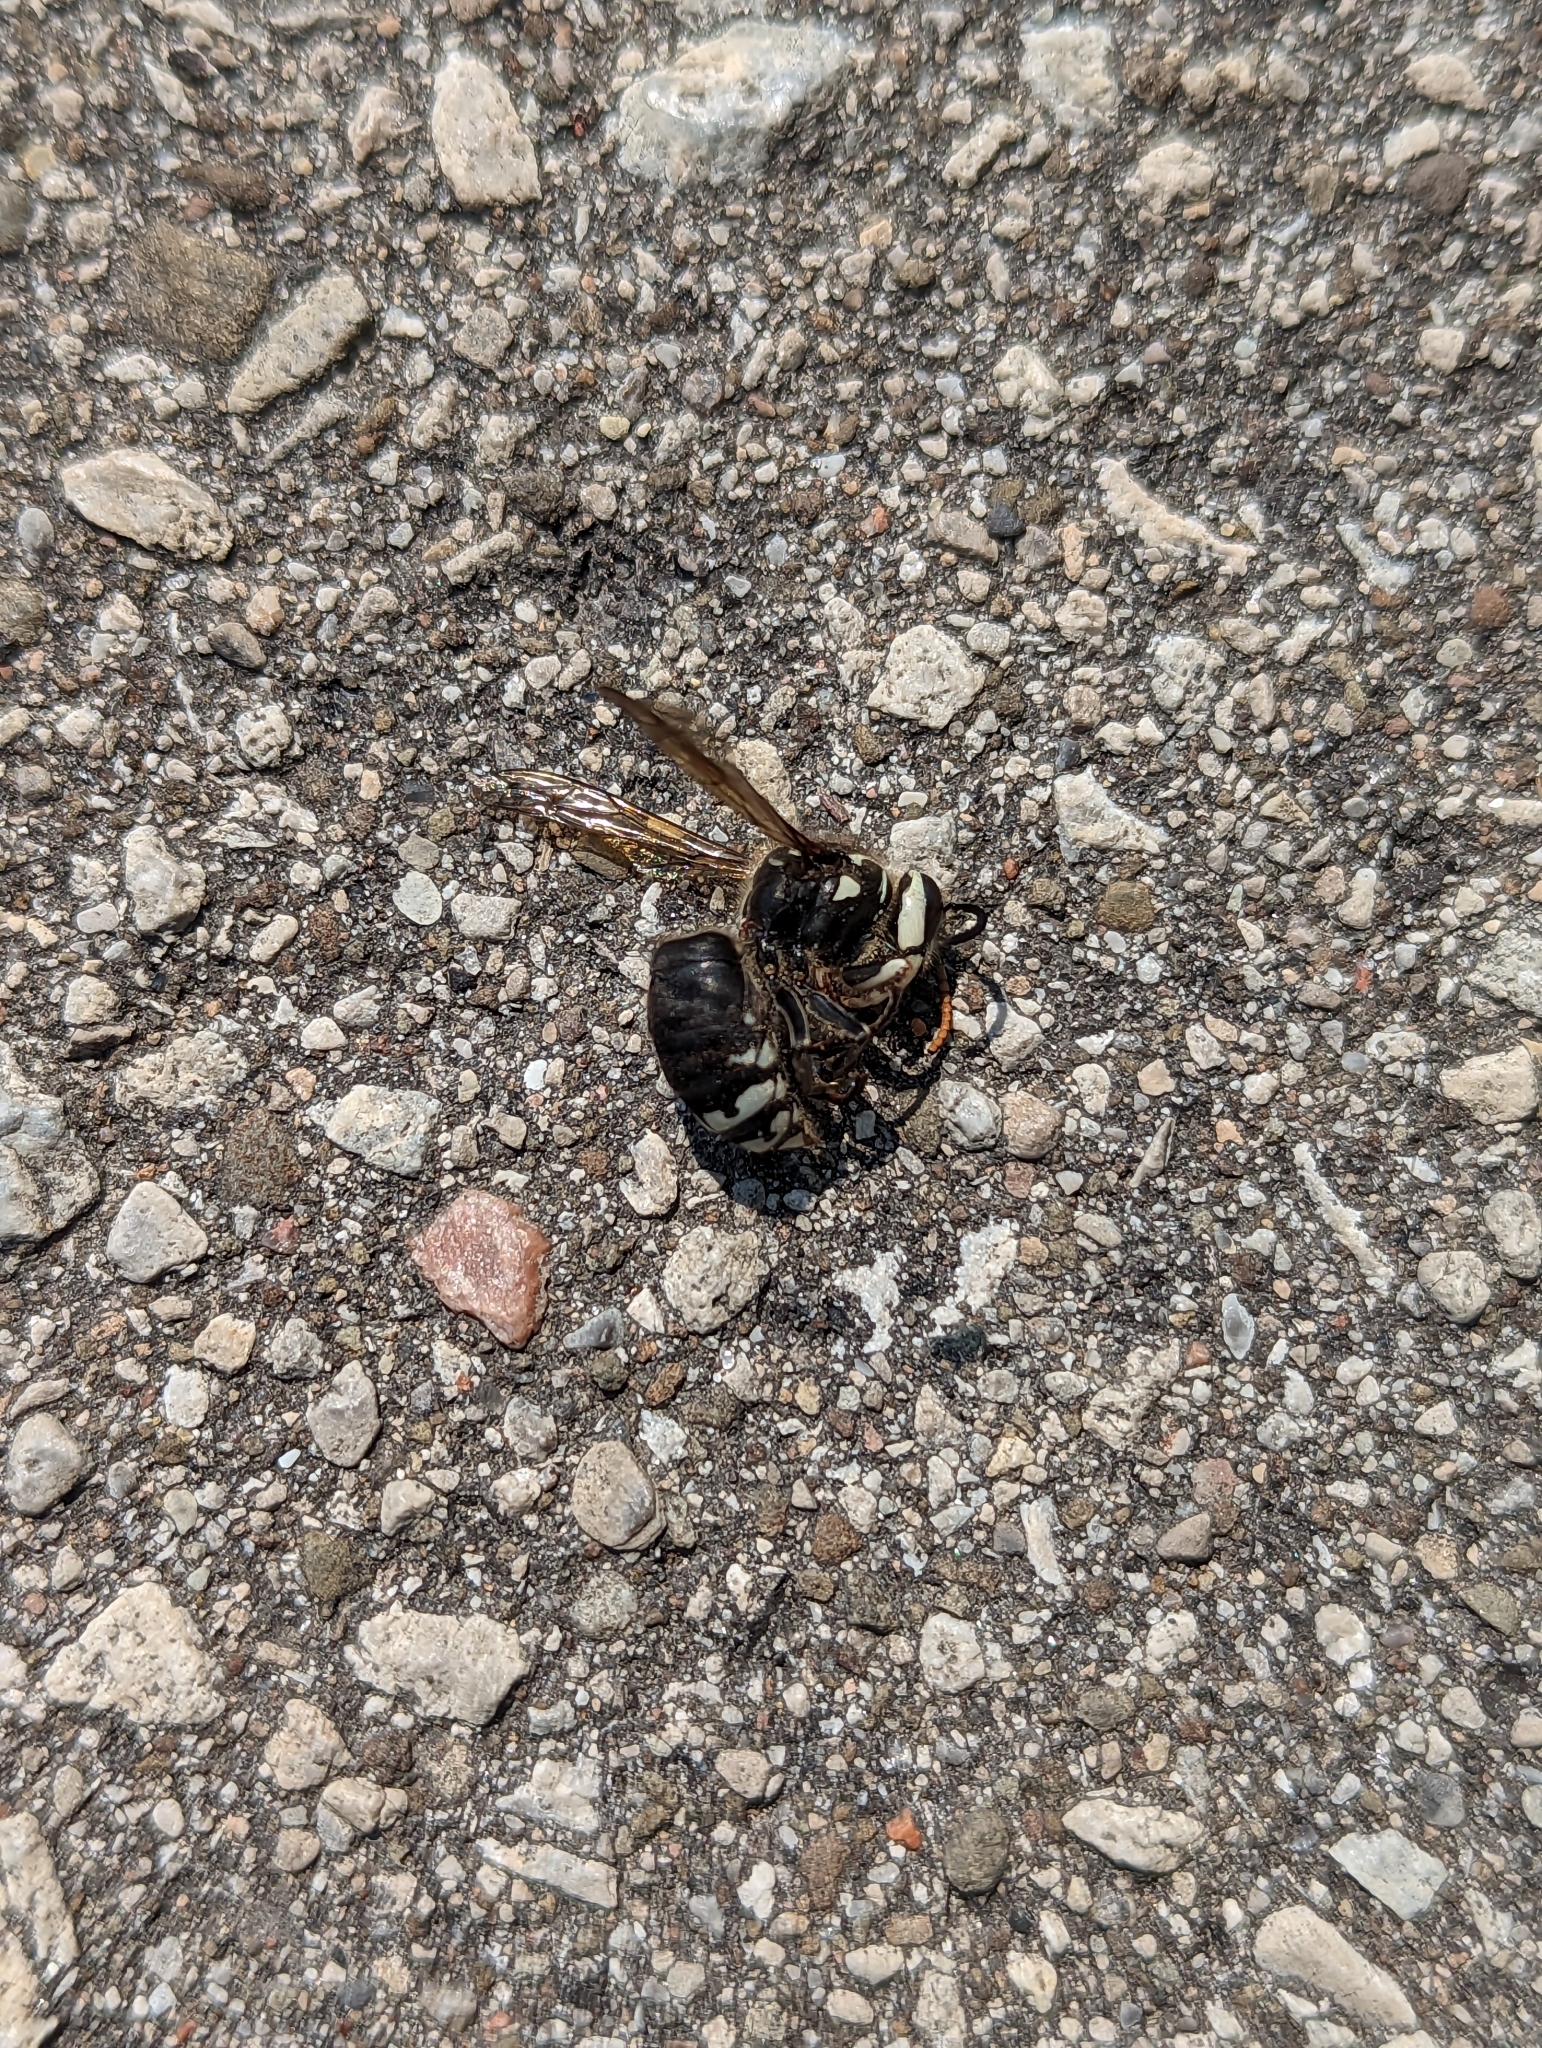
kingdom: Animalia
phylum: Arthropoda
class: Insecta
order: Hymenoptera
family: Vespidae
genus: Dolichovespula
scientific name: Dolichovespula maculata
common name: Bald-faced hornet
